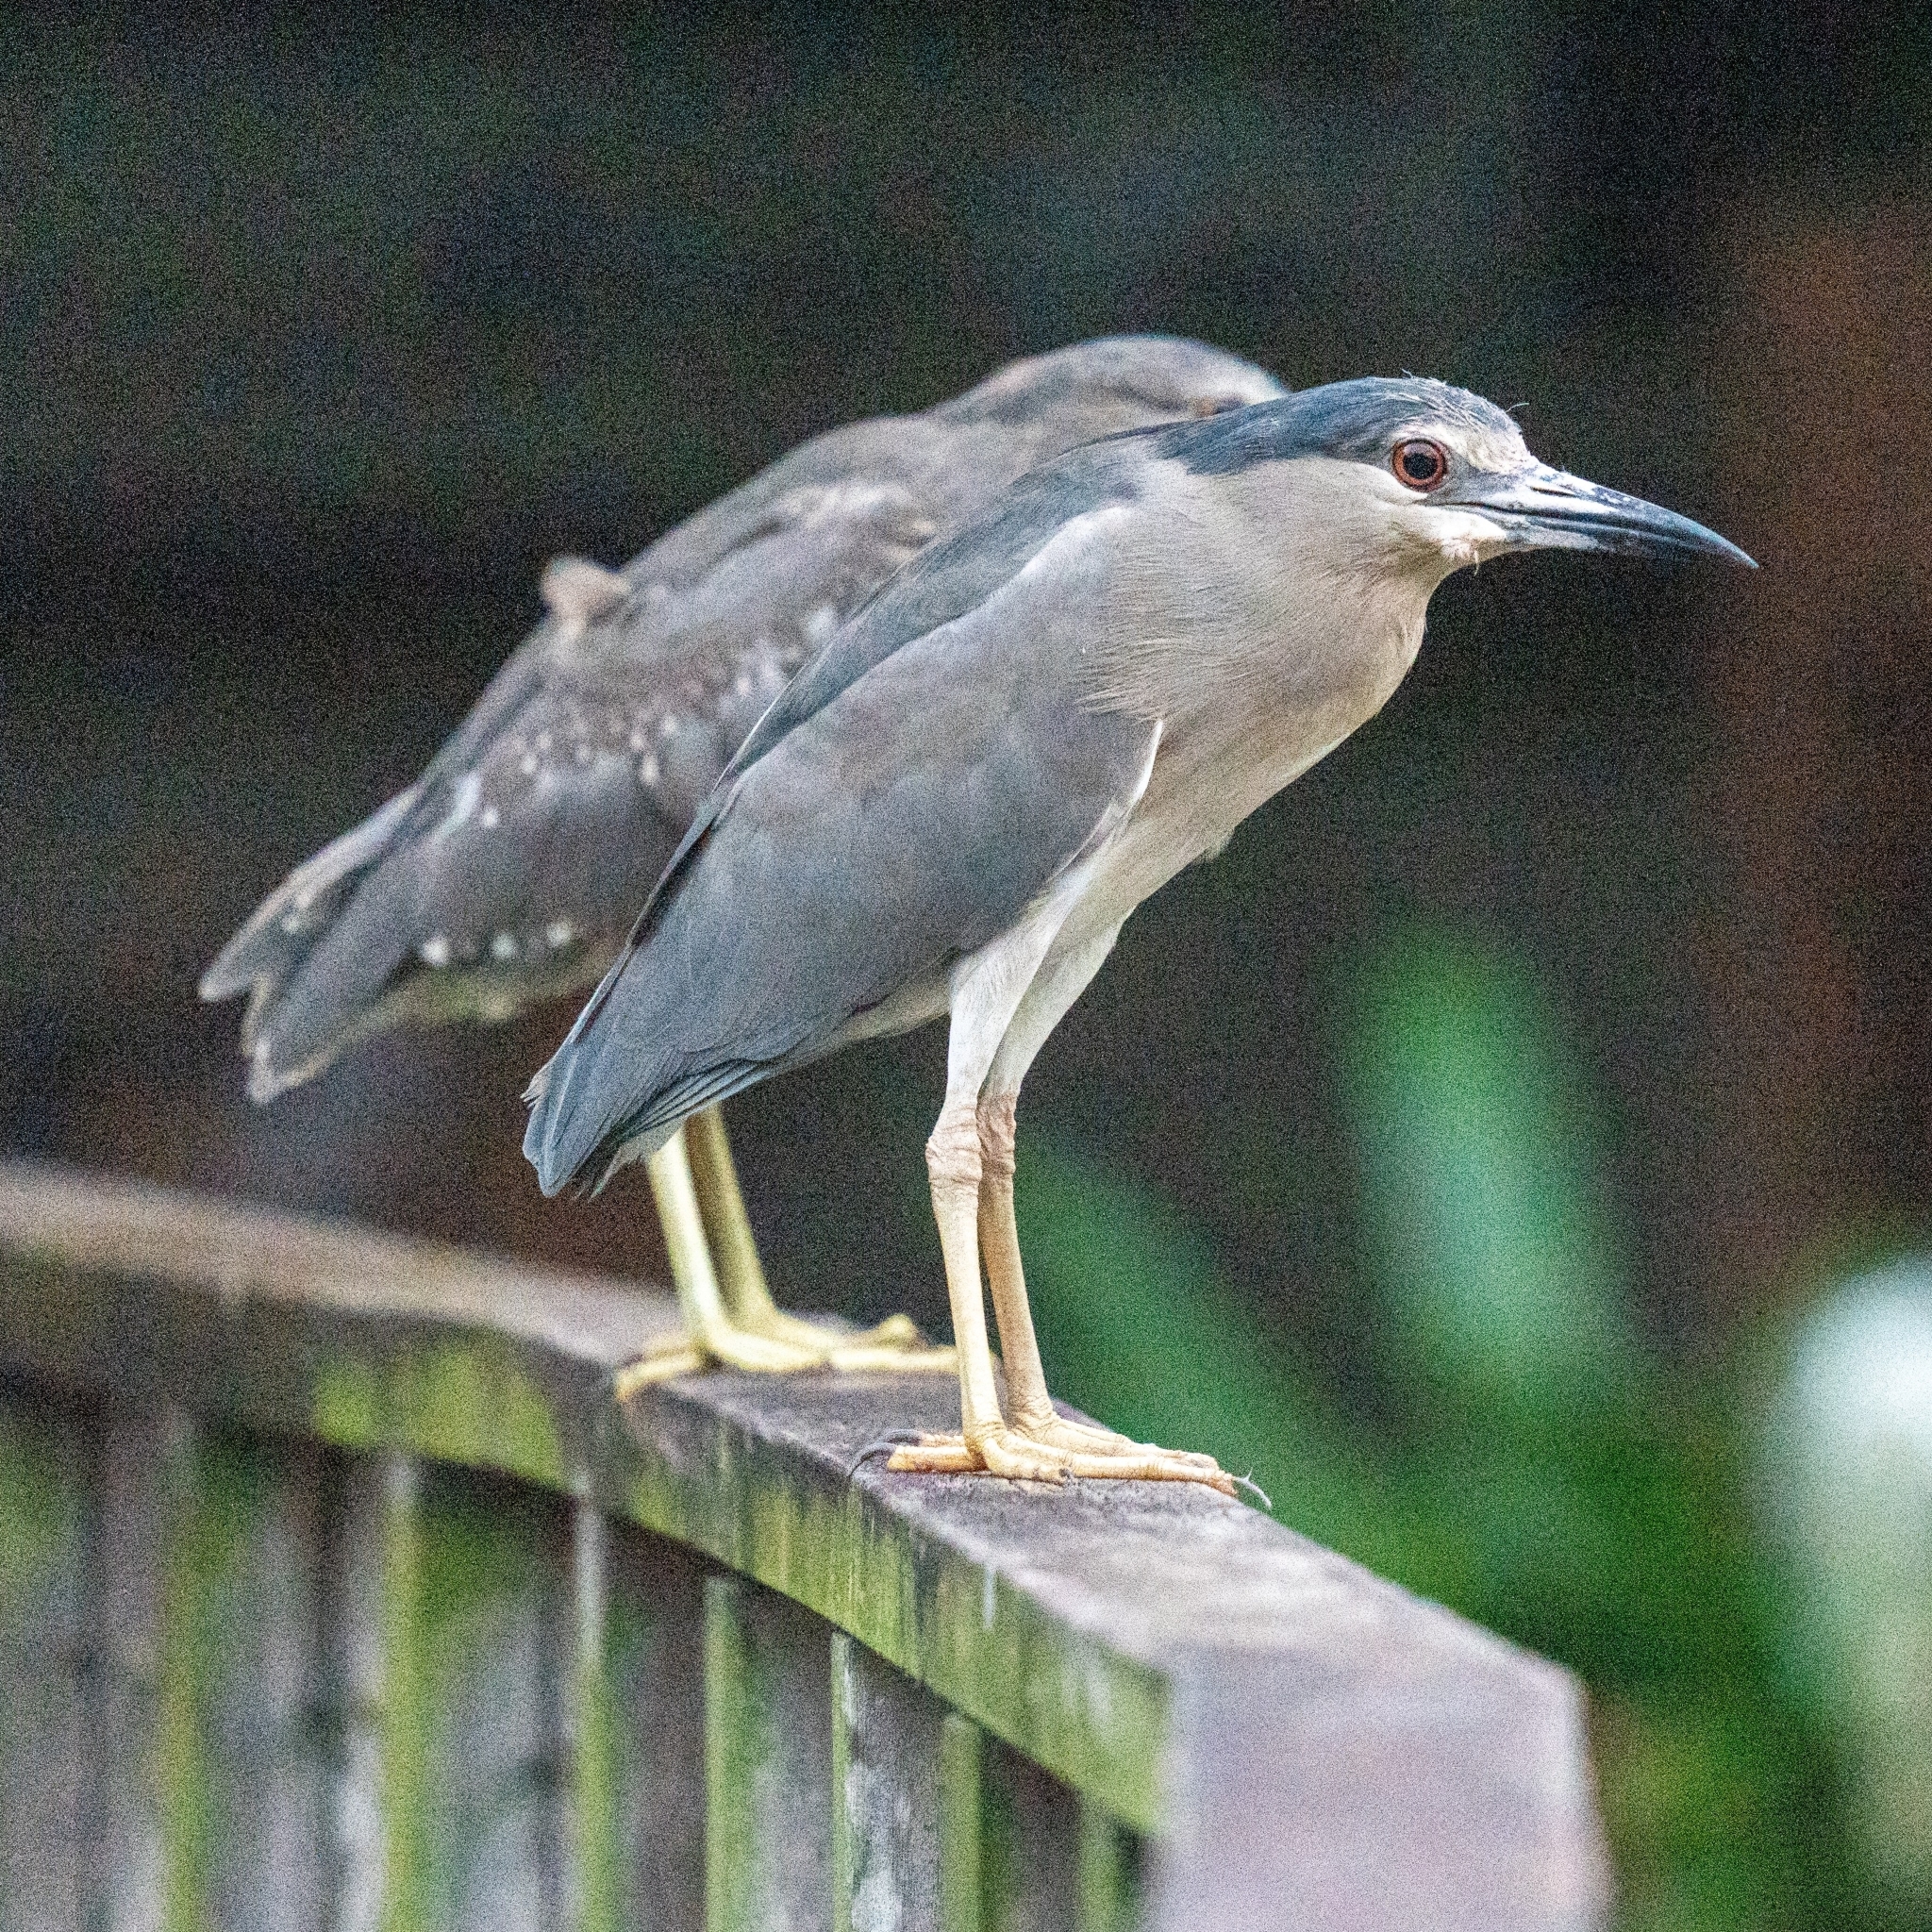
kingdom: Animalia
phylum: Chordata
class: Aves
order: Pelecaniformes
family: Ardeidae
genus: Nycticorax
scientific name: Nycticorax nycticorax
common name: Black-crowned night heron
